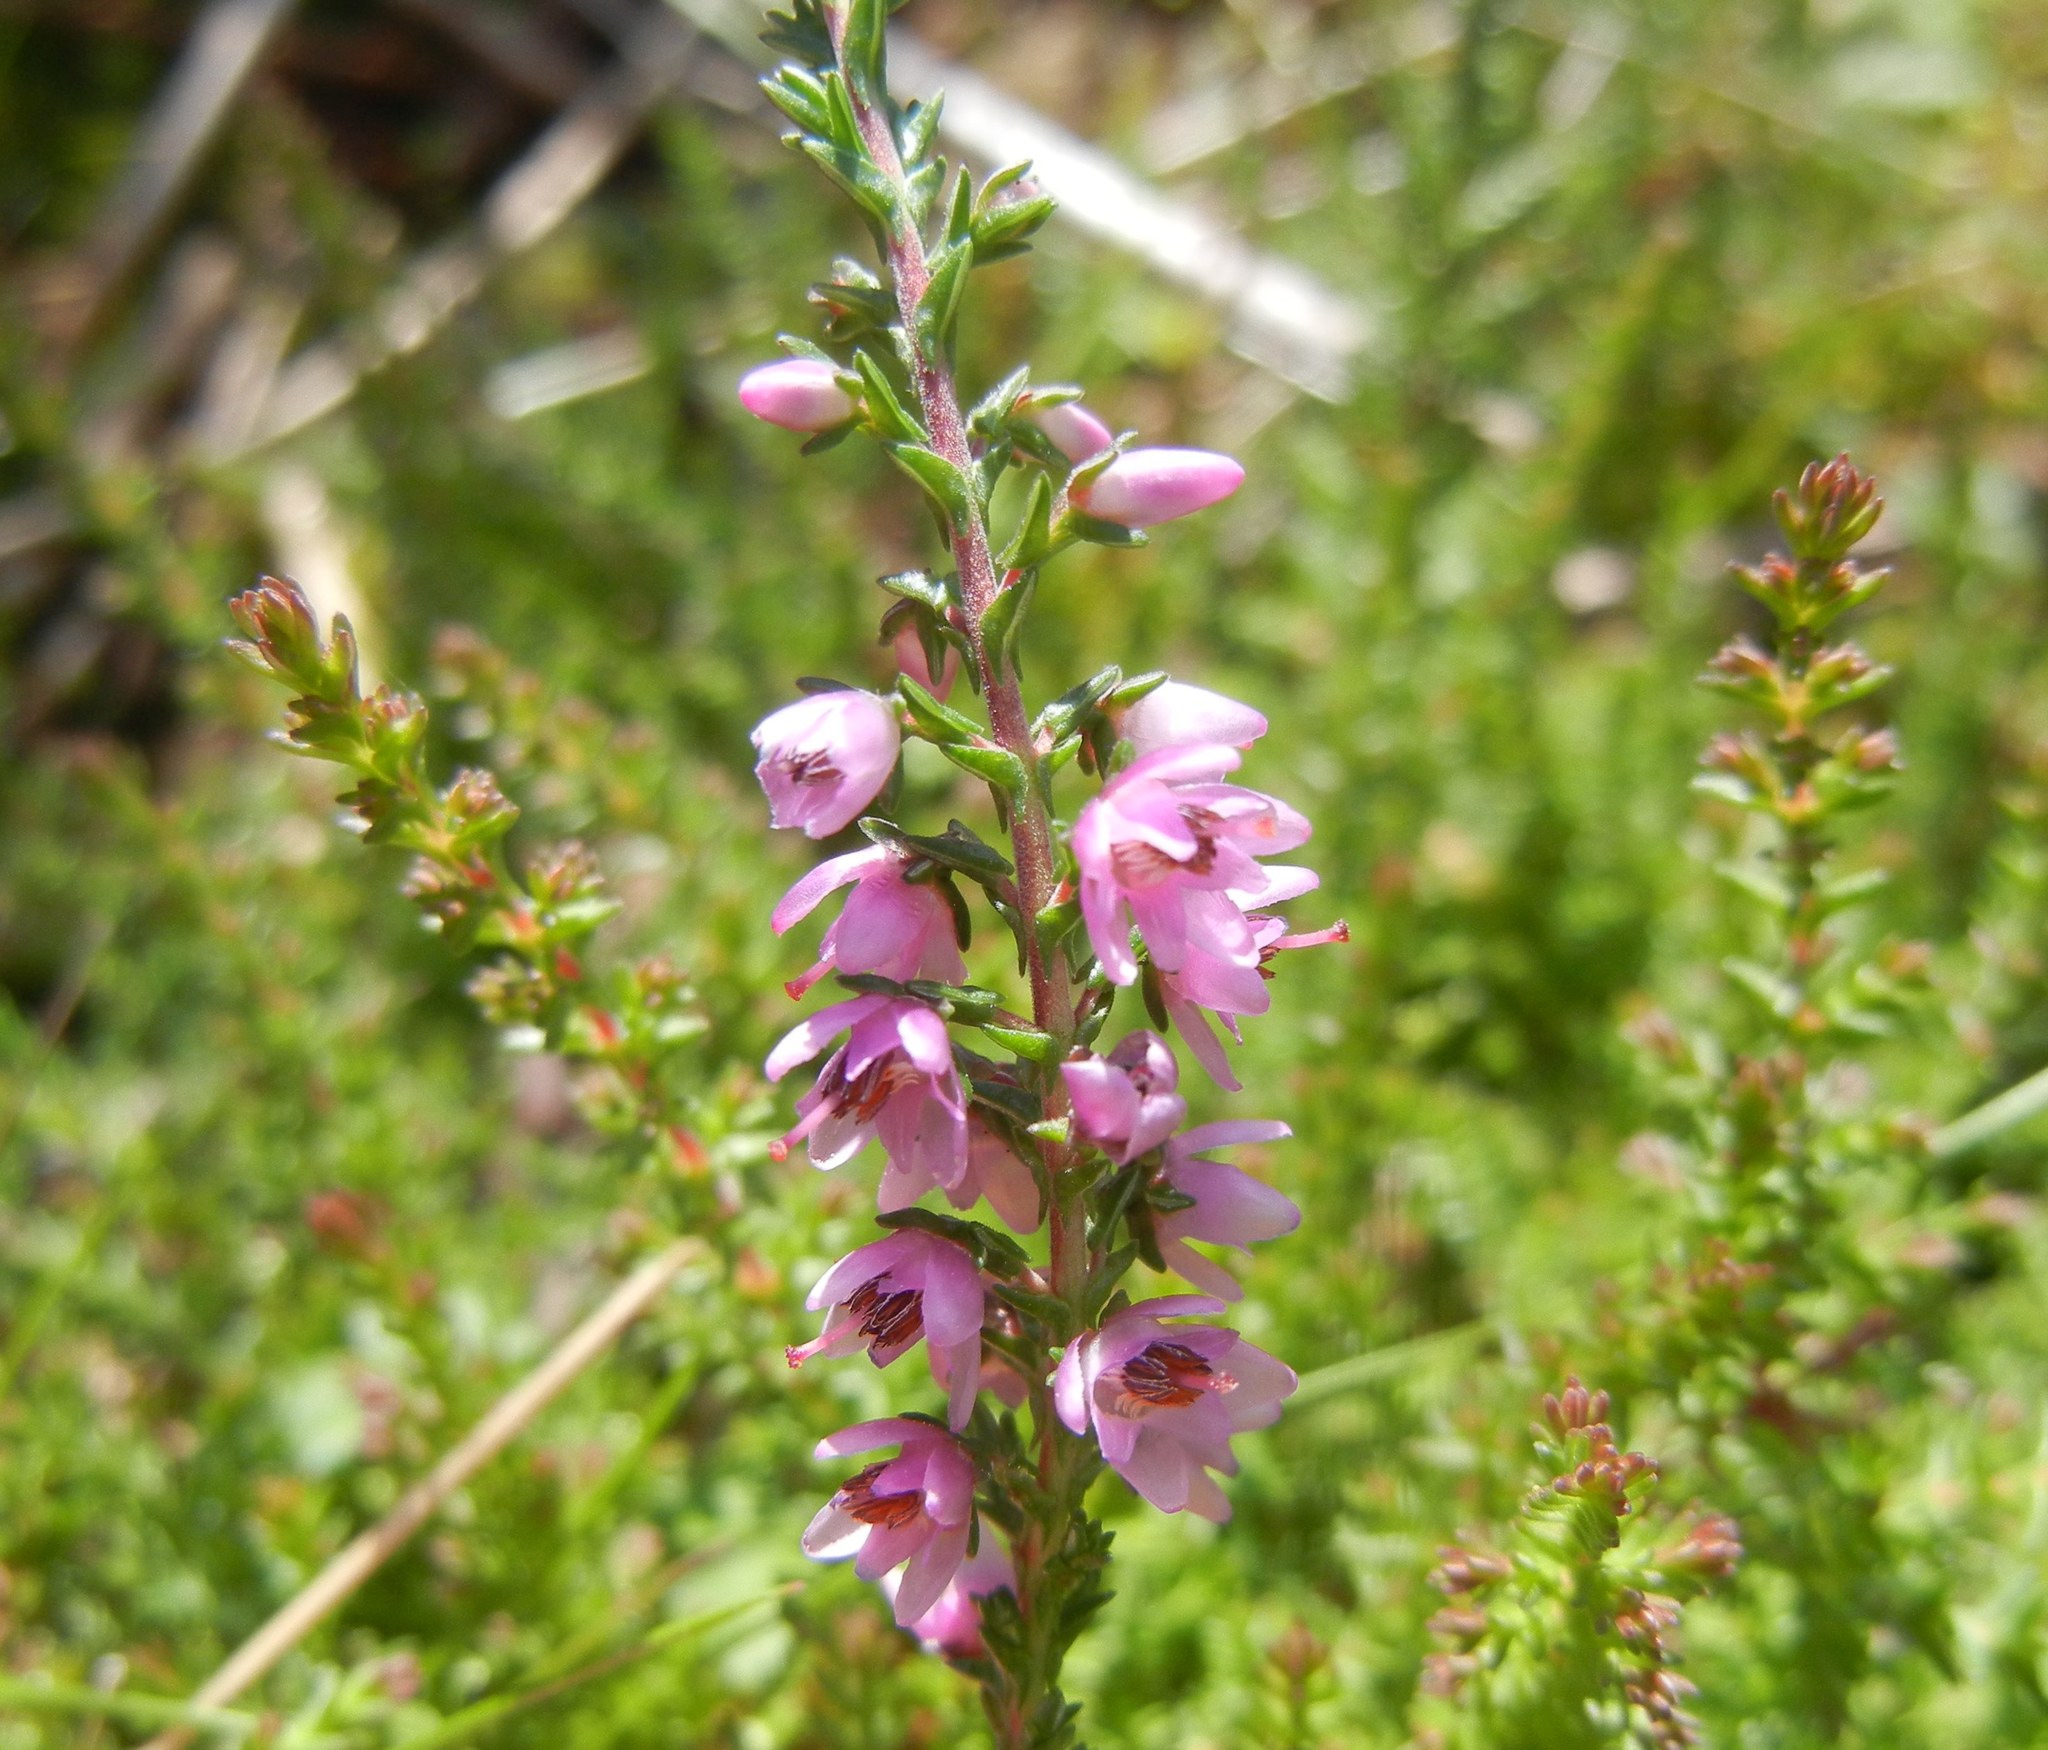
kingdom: Plantae
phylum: Tracheophyta
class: Magnoliopsida
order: Ericales
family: Ericaceae
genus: Calluna
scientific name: Calluna vulgaris
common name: Heather
